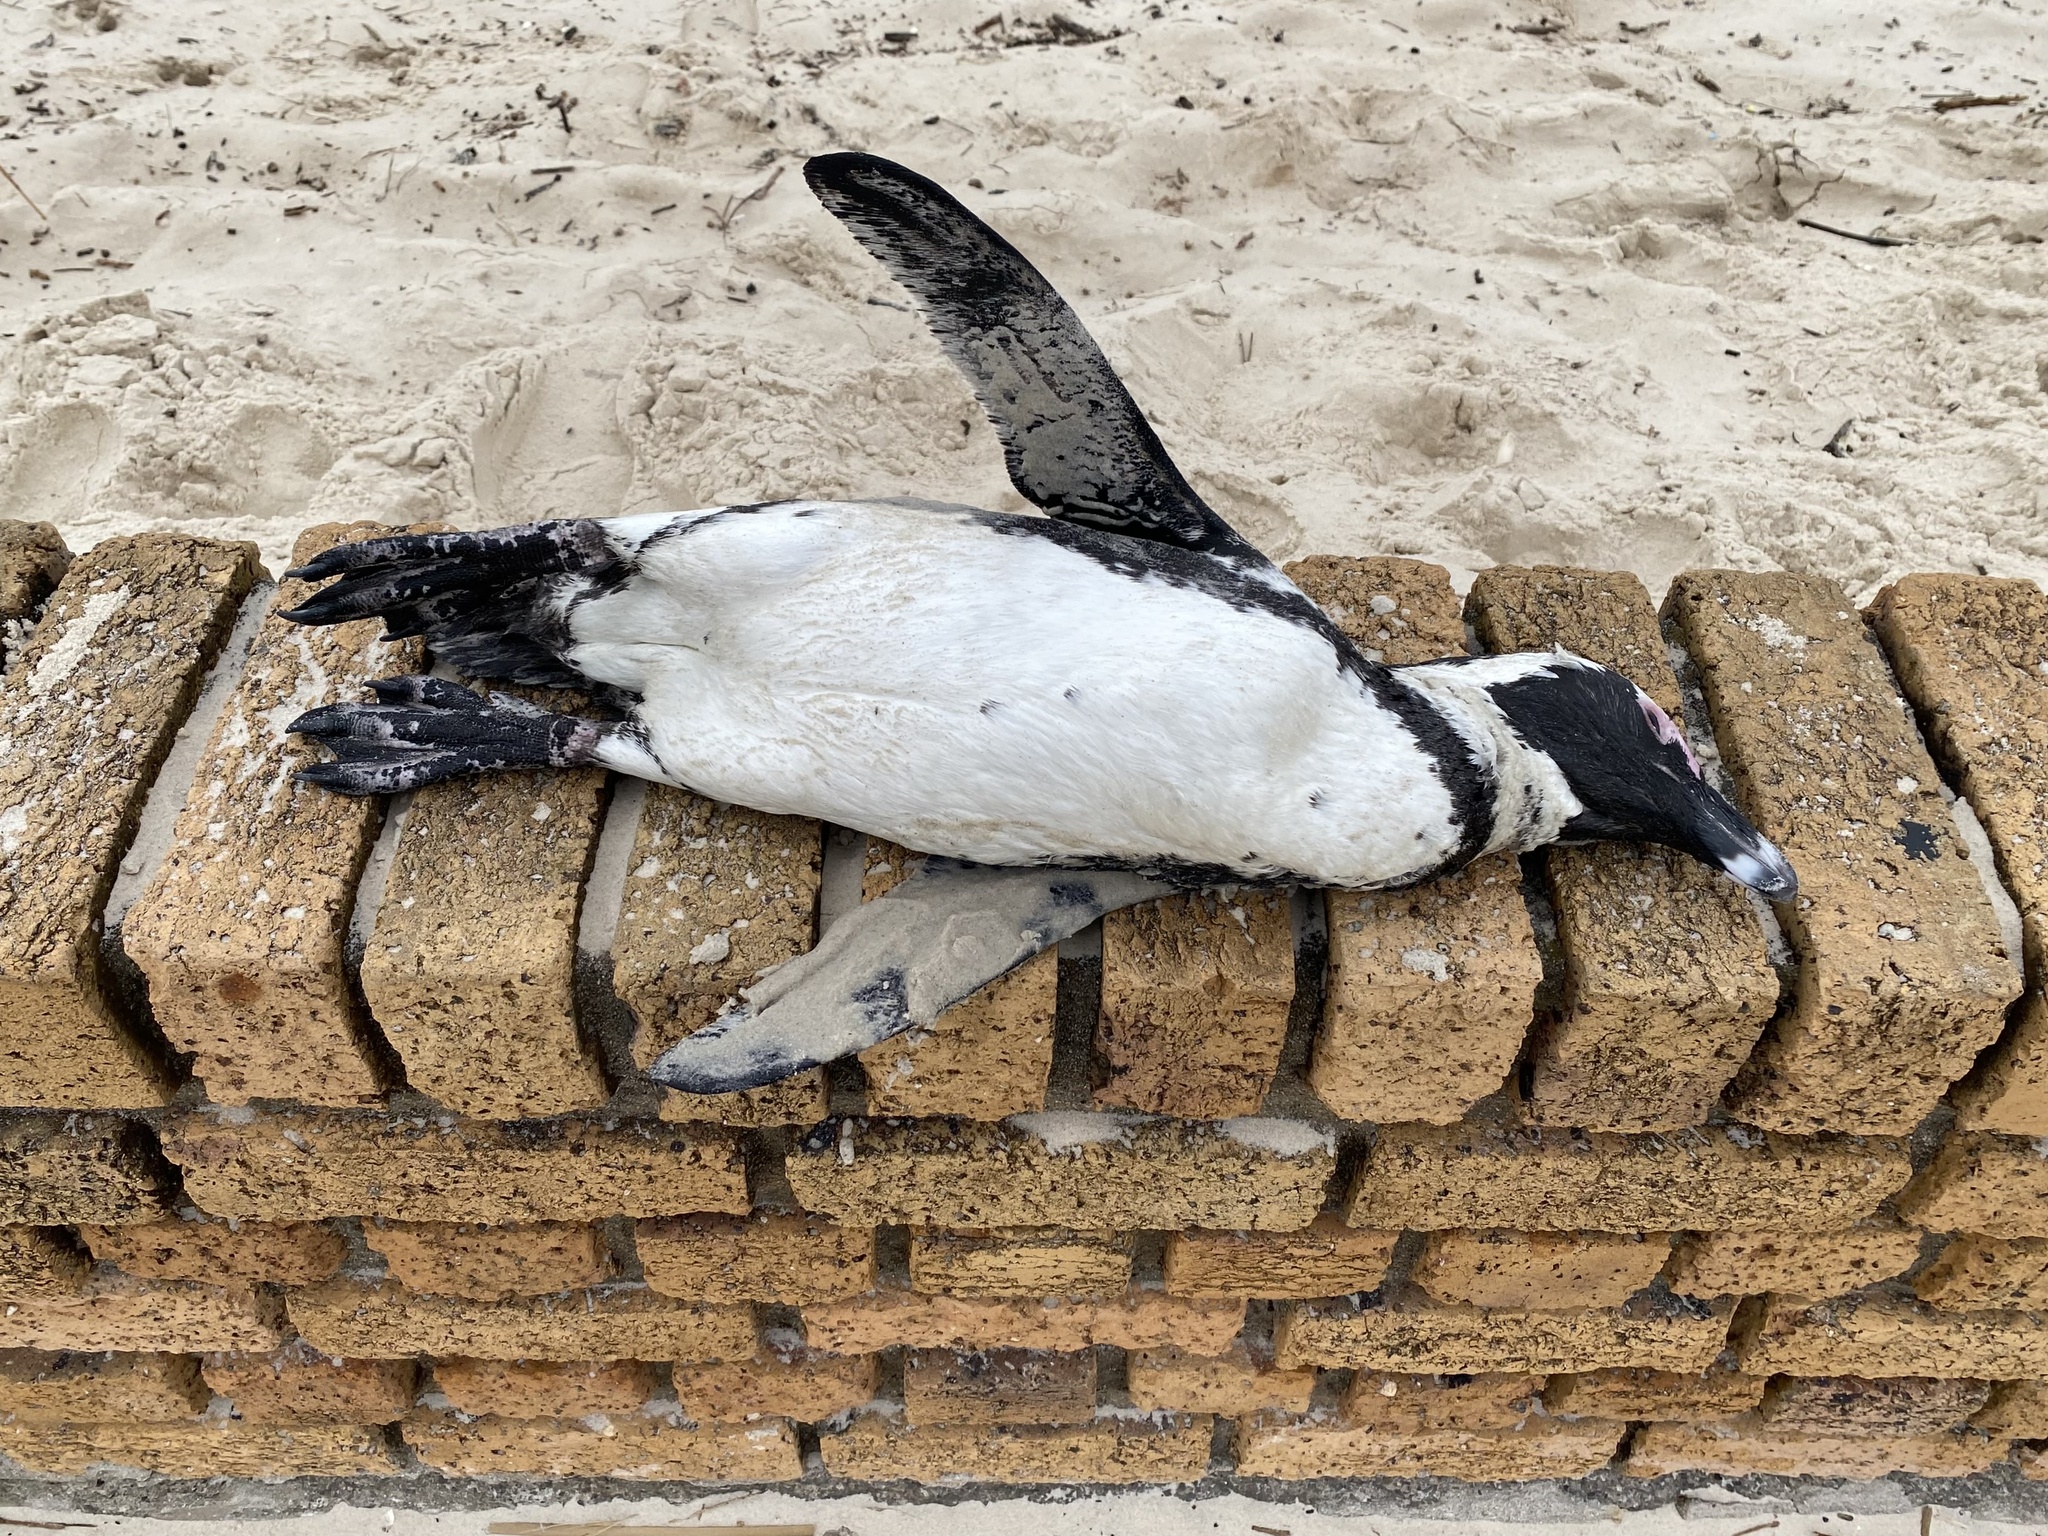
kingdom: Animalia
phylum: Chordata
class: Aves
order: Sphenisciformes
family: Spheniscidae
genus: Spheniscus
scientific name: Spheniscus demersus
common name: African penguin
